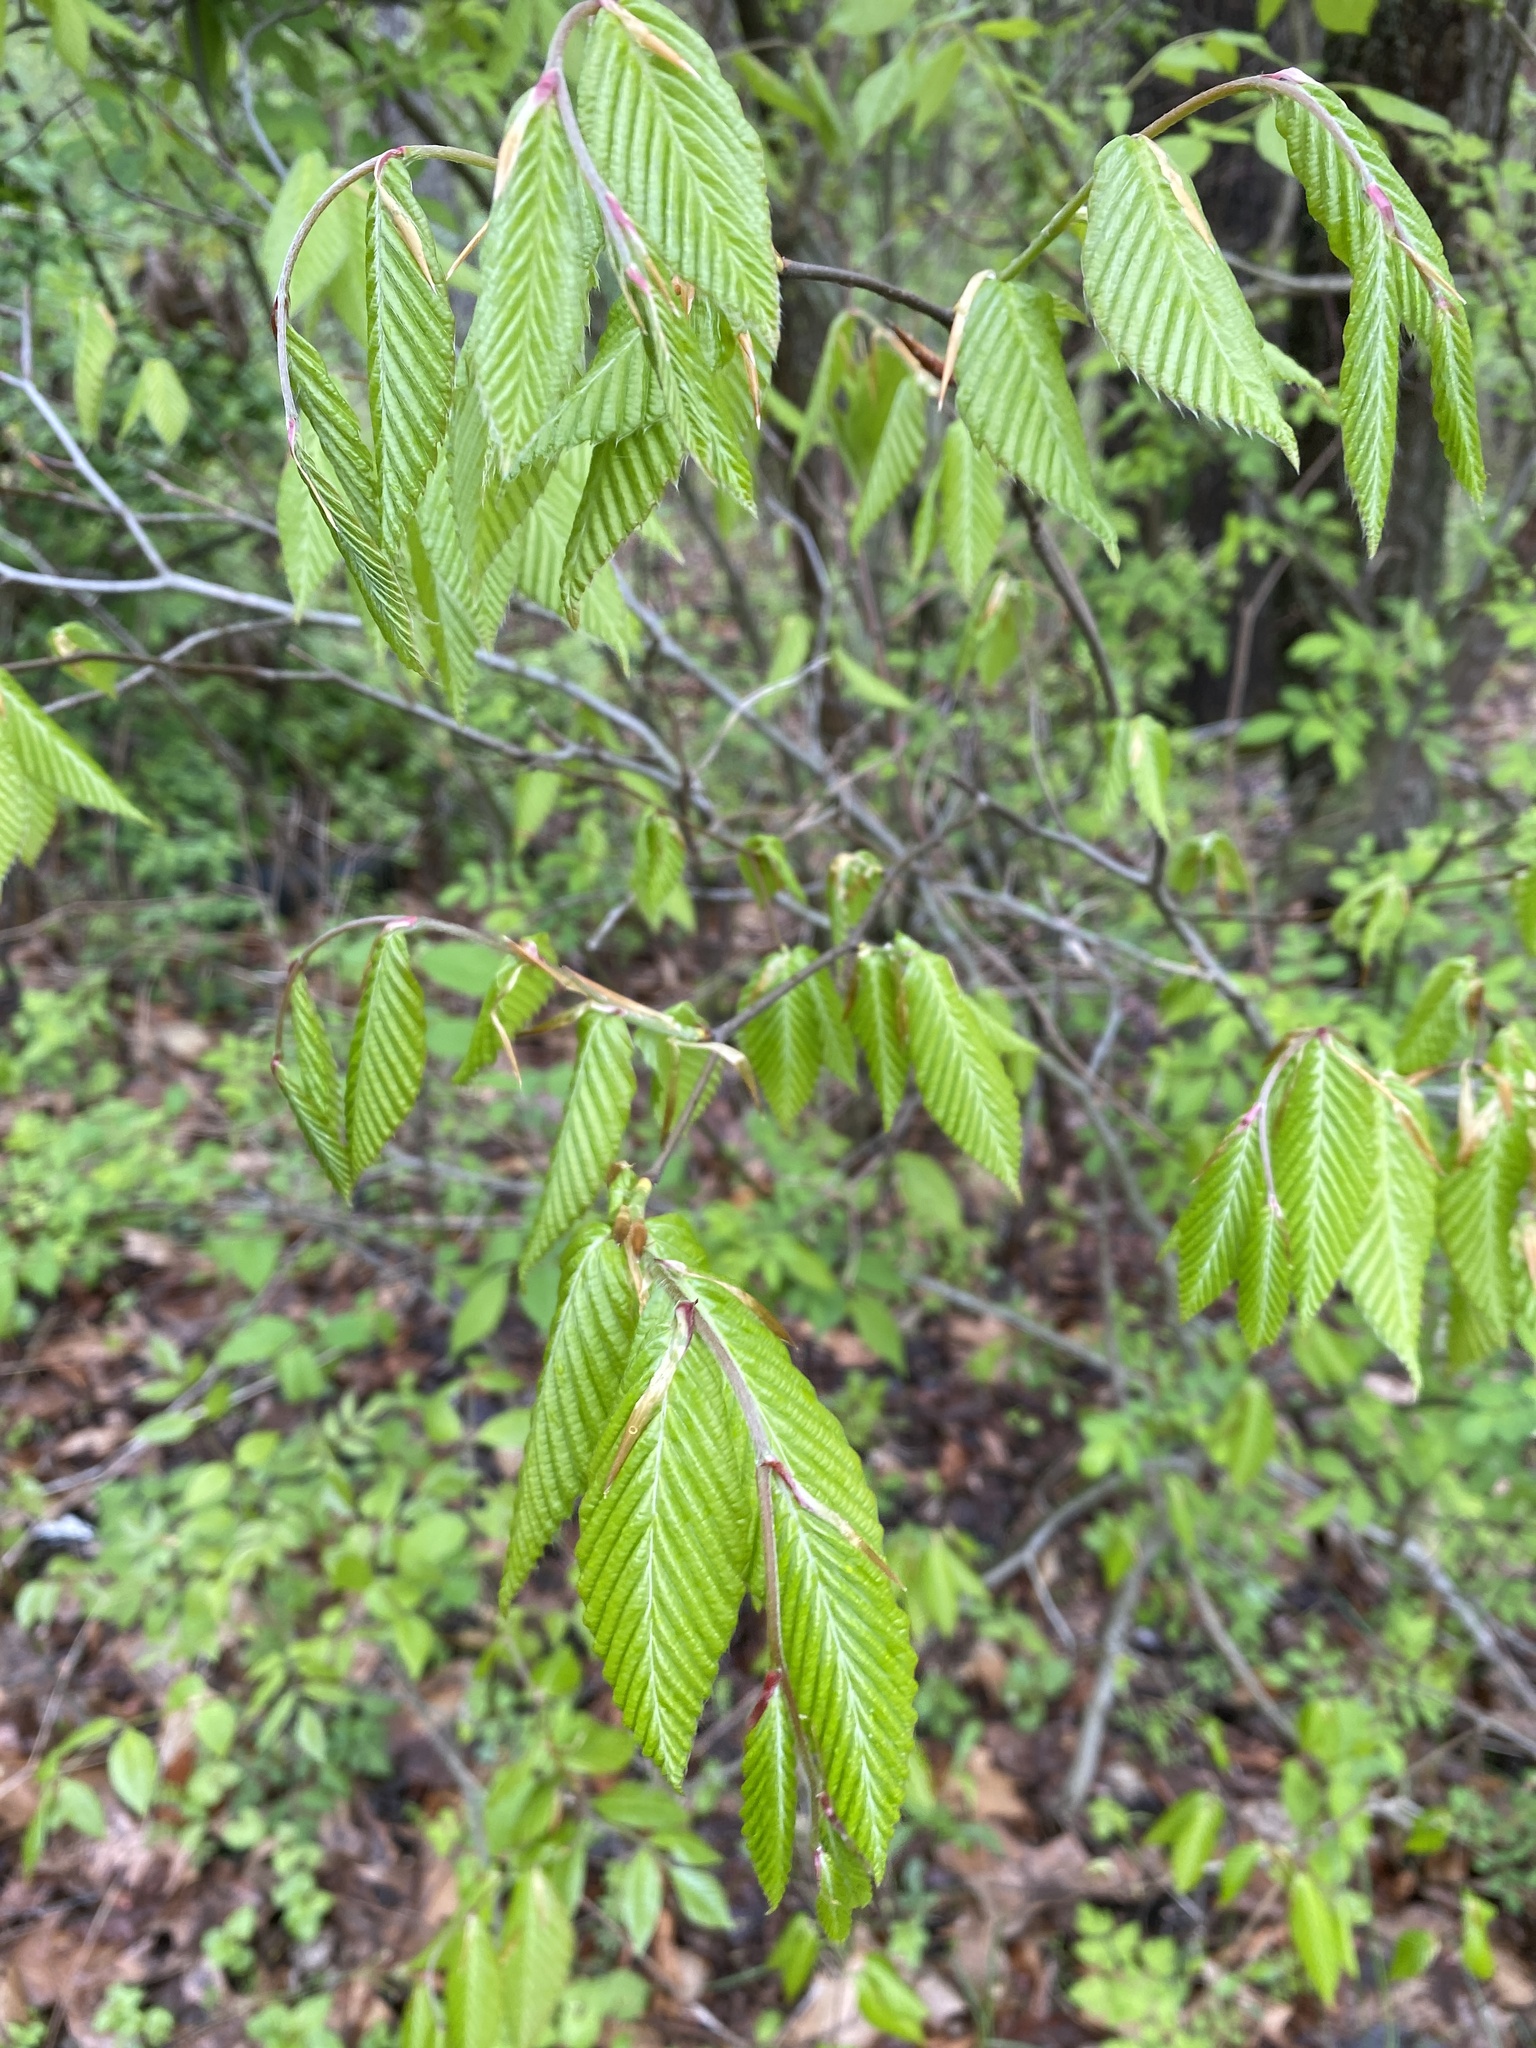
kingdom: Plantae
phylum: Tracheophyta
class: Magnoliopsida
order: Fagales
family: Fagaceae
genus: Fagus
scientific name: Fagus grandifolia
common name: American beech
